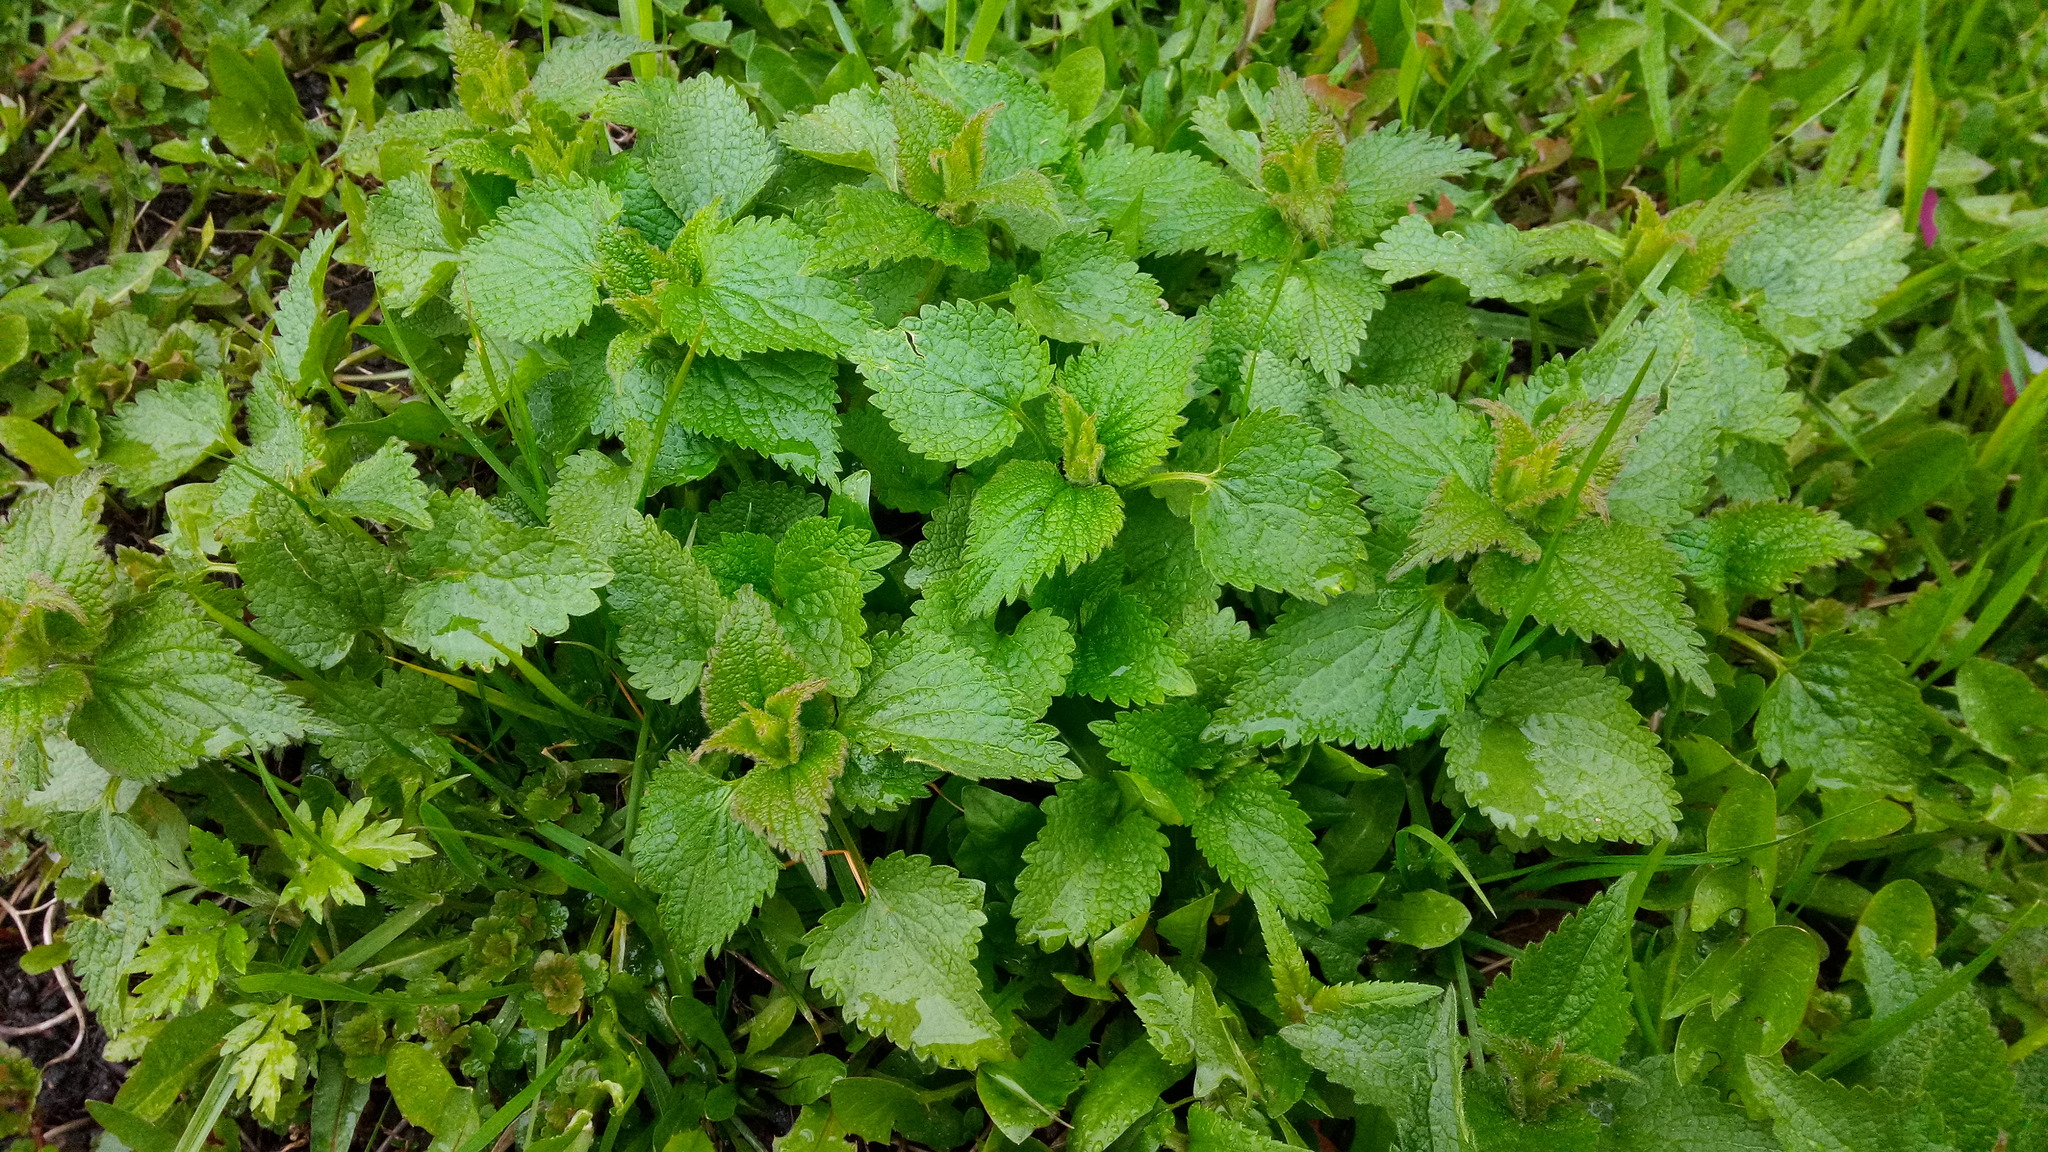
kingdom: Plantae
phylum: Tracheophyta
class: Magnoliopsida
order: Lamiales
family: Lamiaceae
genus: Lamium
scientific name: Lamium album
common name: White dead-nettle
